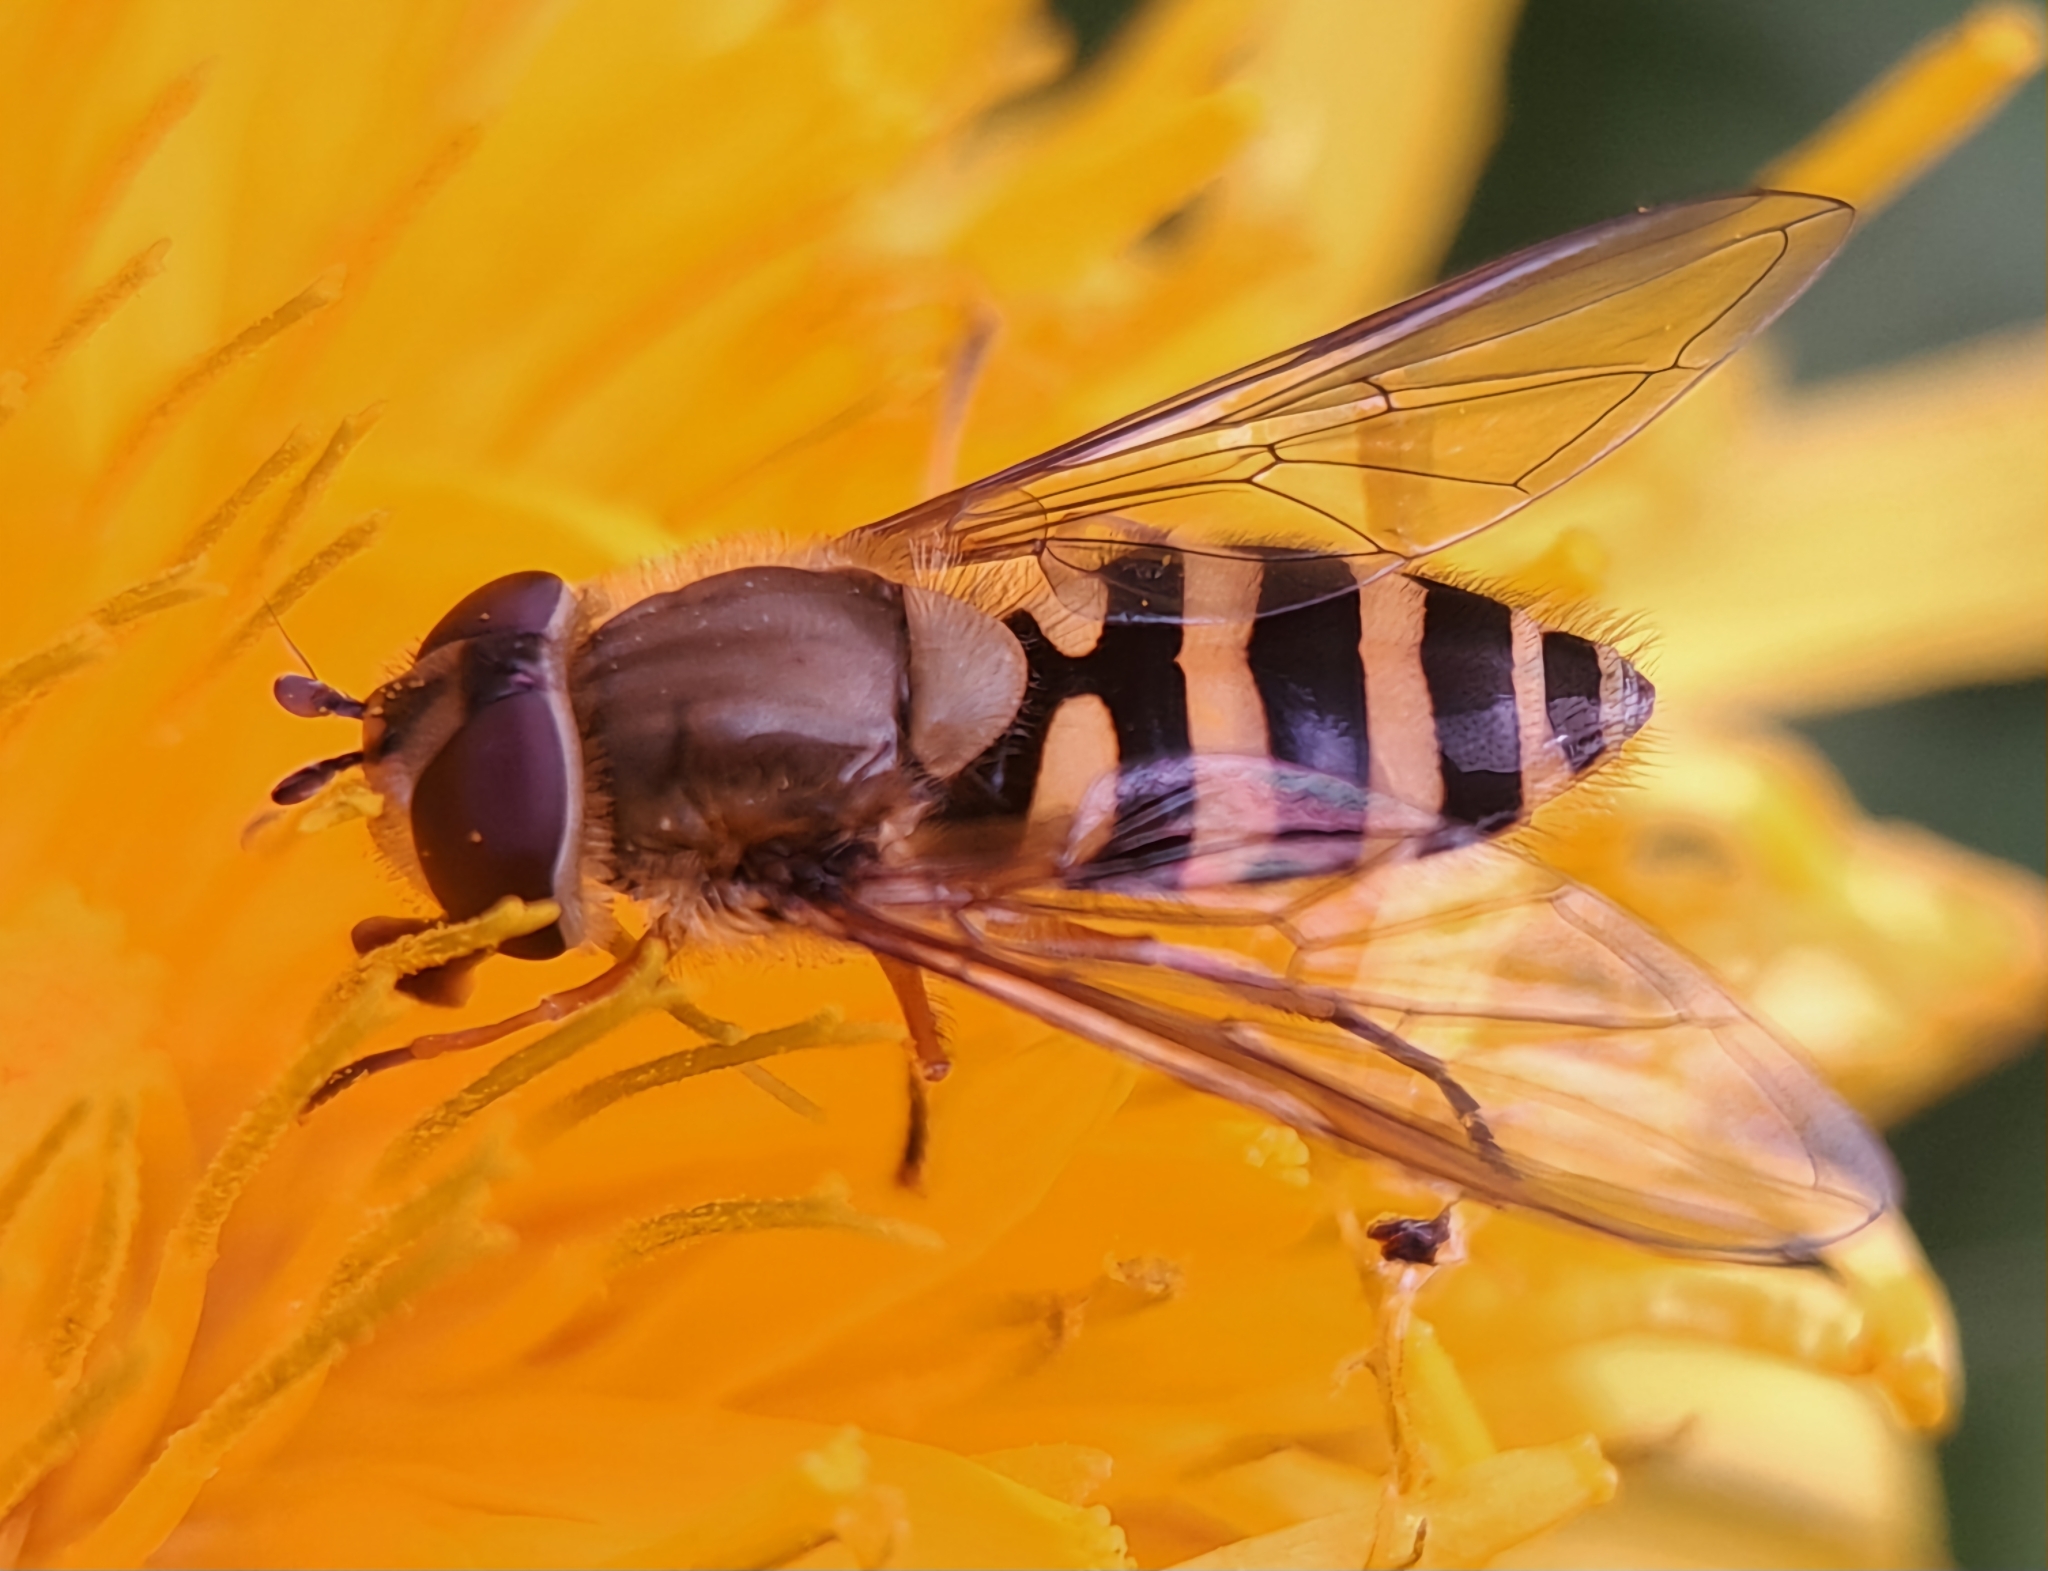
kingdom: Animalia
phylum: Arthropoda
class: Insecta
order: Diptera
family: Syrphidae
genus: Syrphus
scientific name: Syrphus ribesii
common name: Common flower fly
